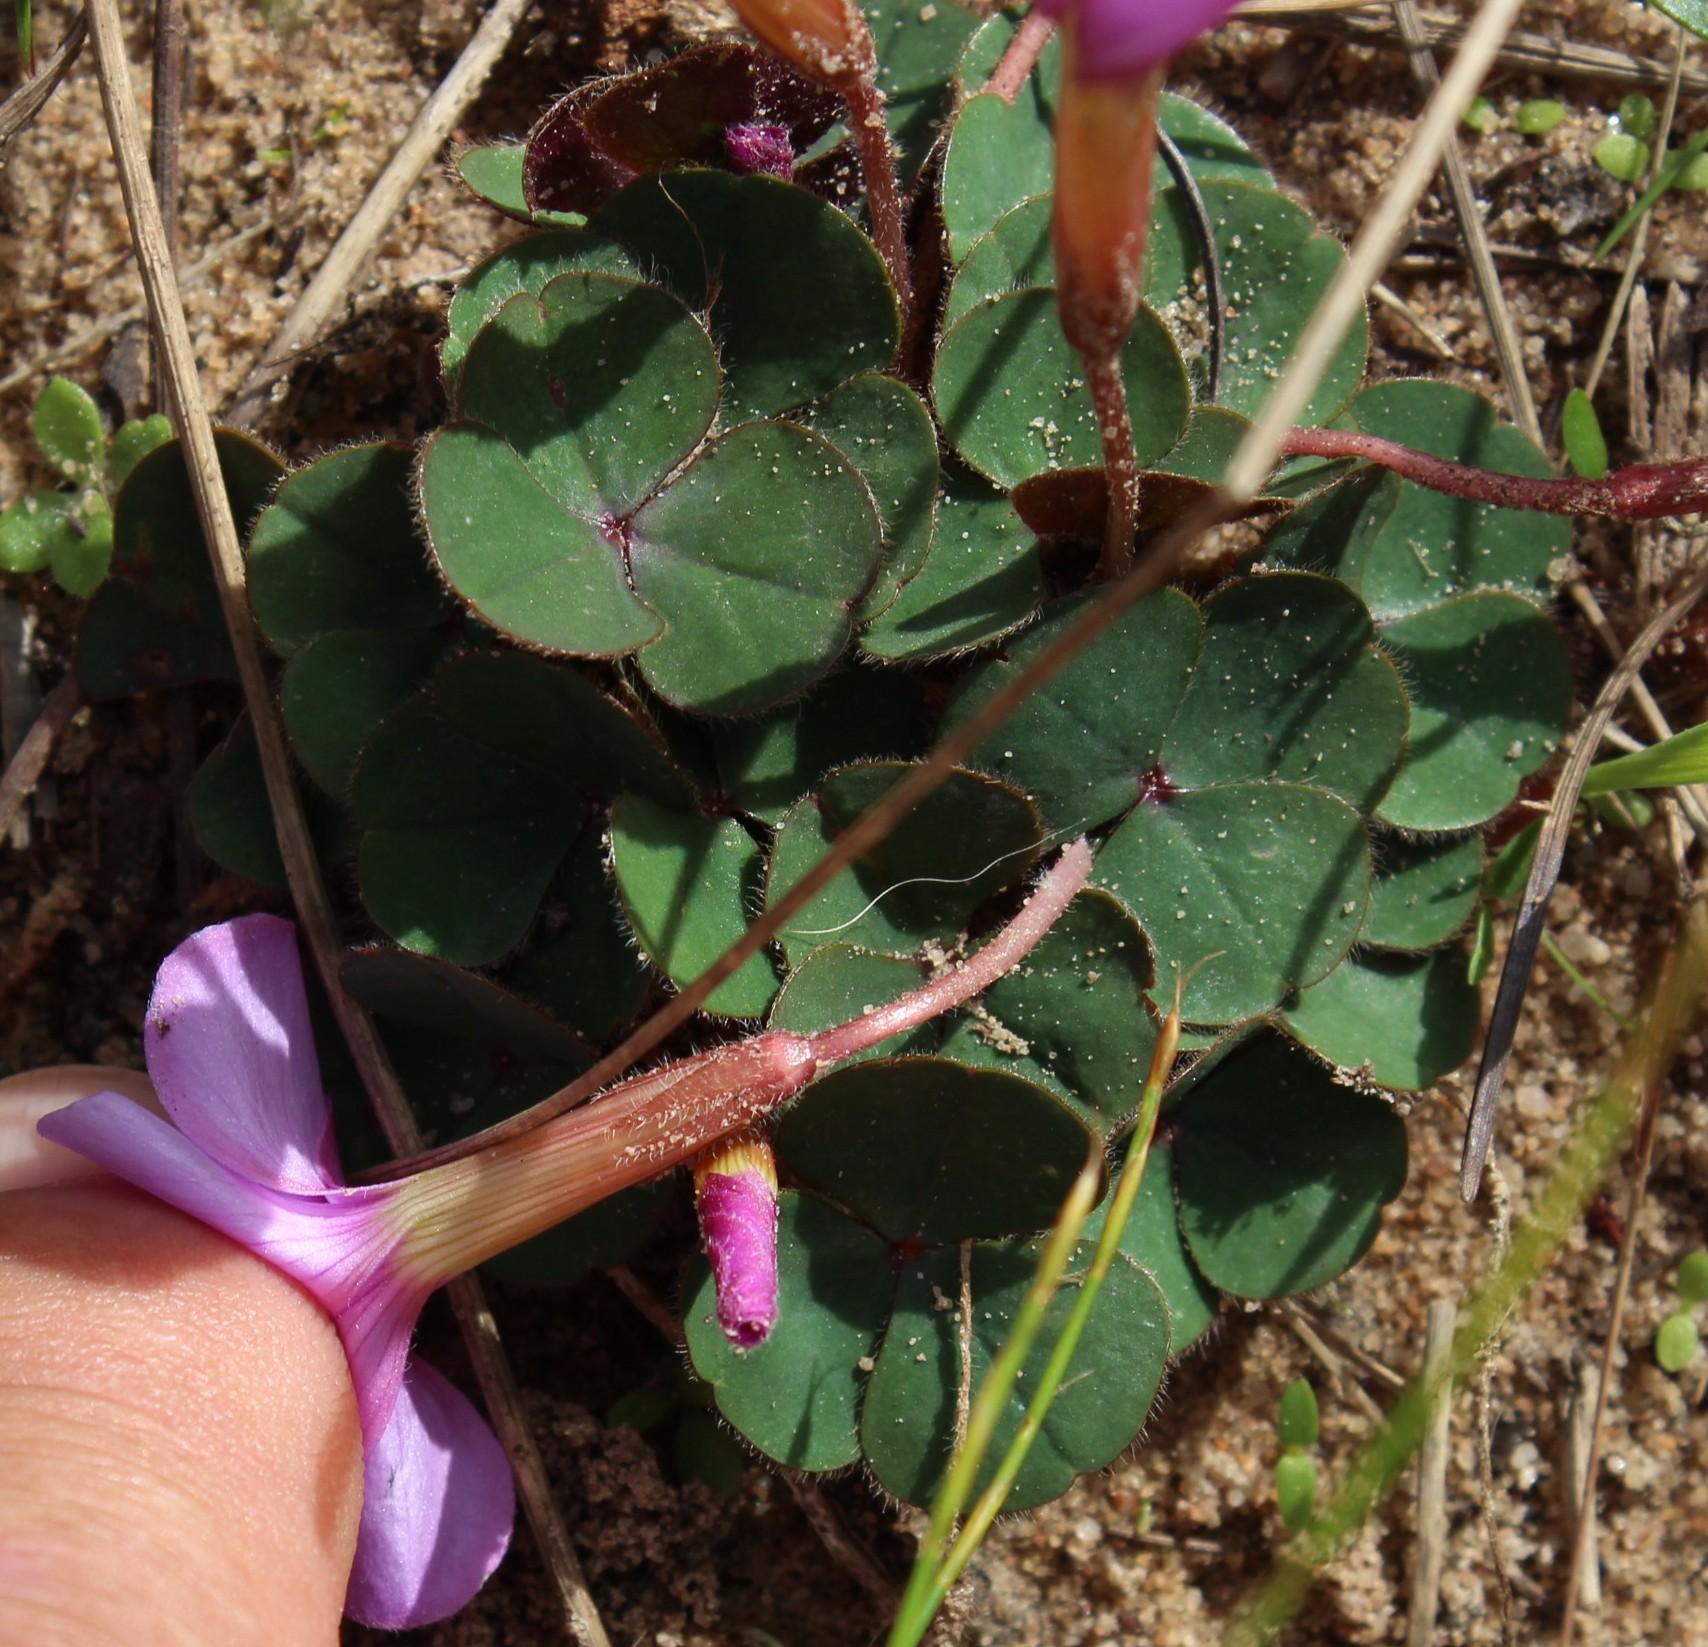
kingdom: Plantae
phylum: Tracheophyta
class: Magnoliopsida
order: Oxalidales
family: Oxalidaceae
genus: Oxalis
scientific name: Oxalis eckloniana
